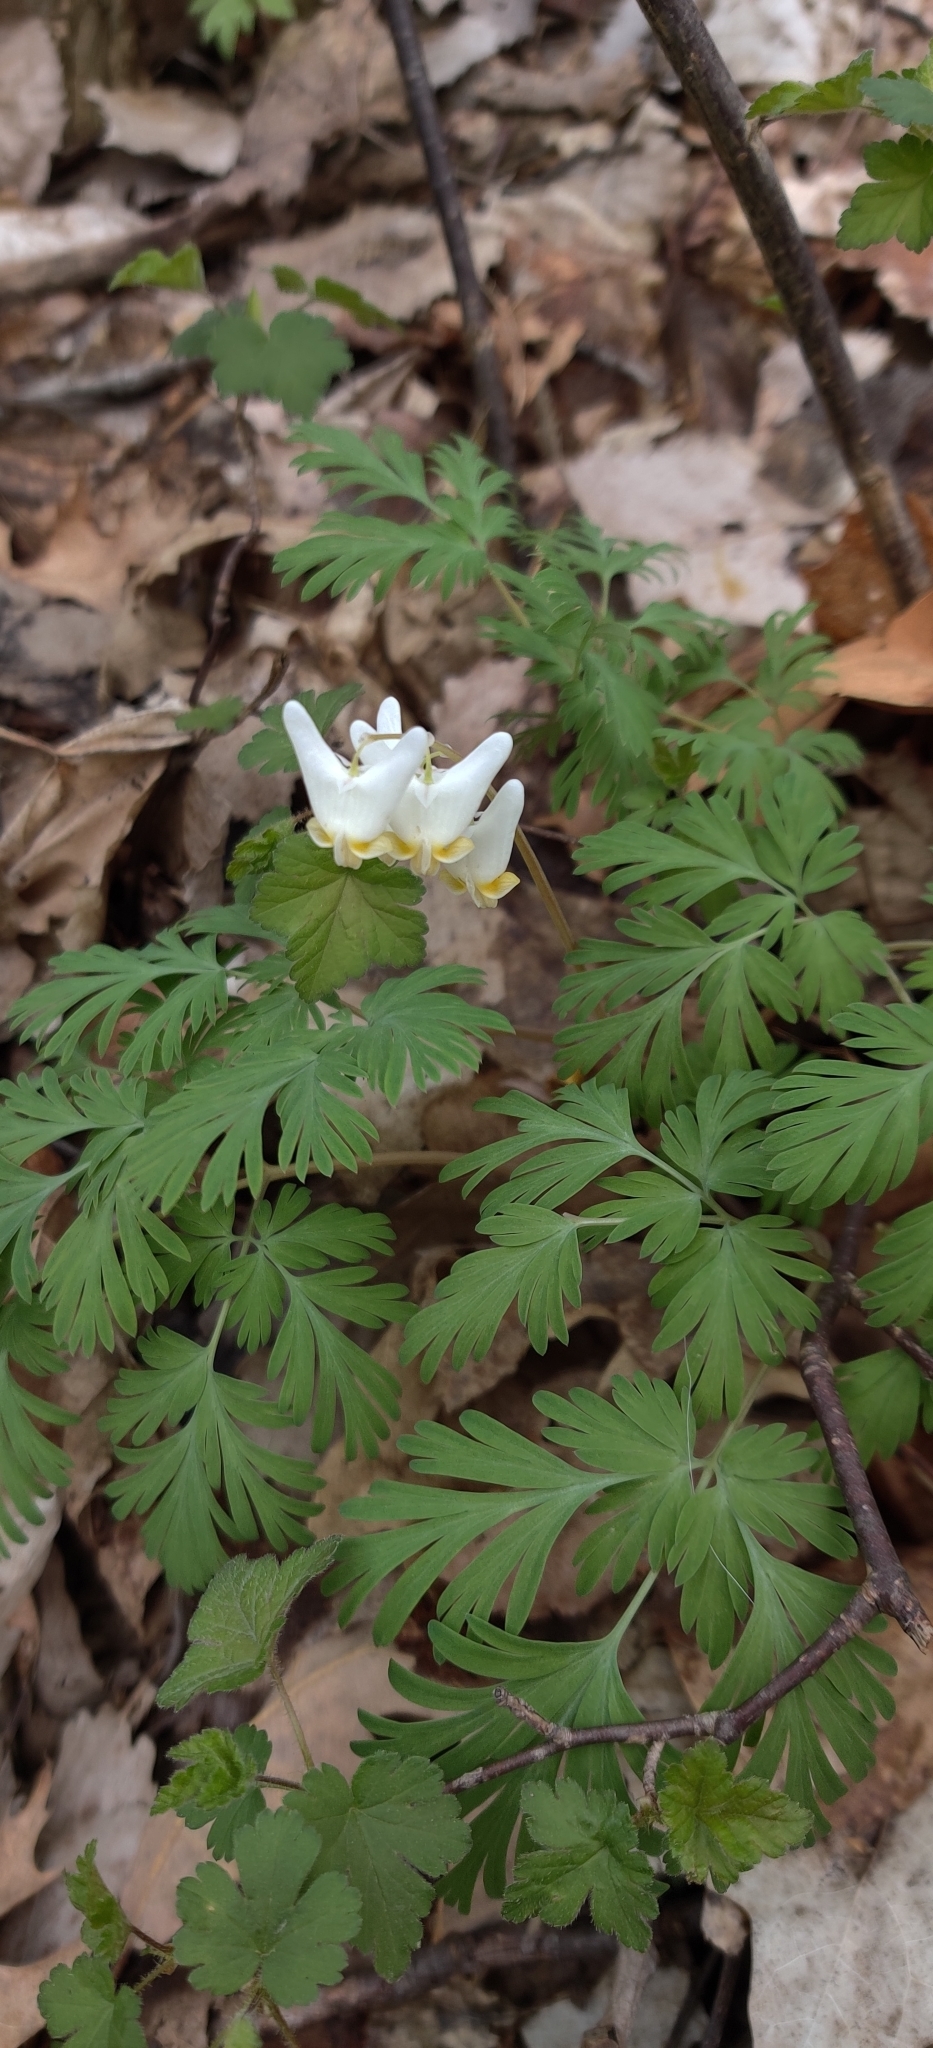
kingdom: Plantae
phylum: Tracheophyta
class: Magnoliopsida
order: Ranunculales
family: Papaveraceae
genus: Dicentra
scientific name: Dicentra cucullaria
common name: Dutchman's breeches
